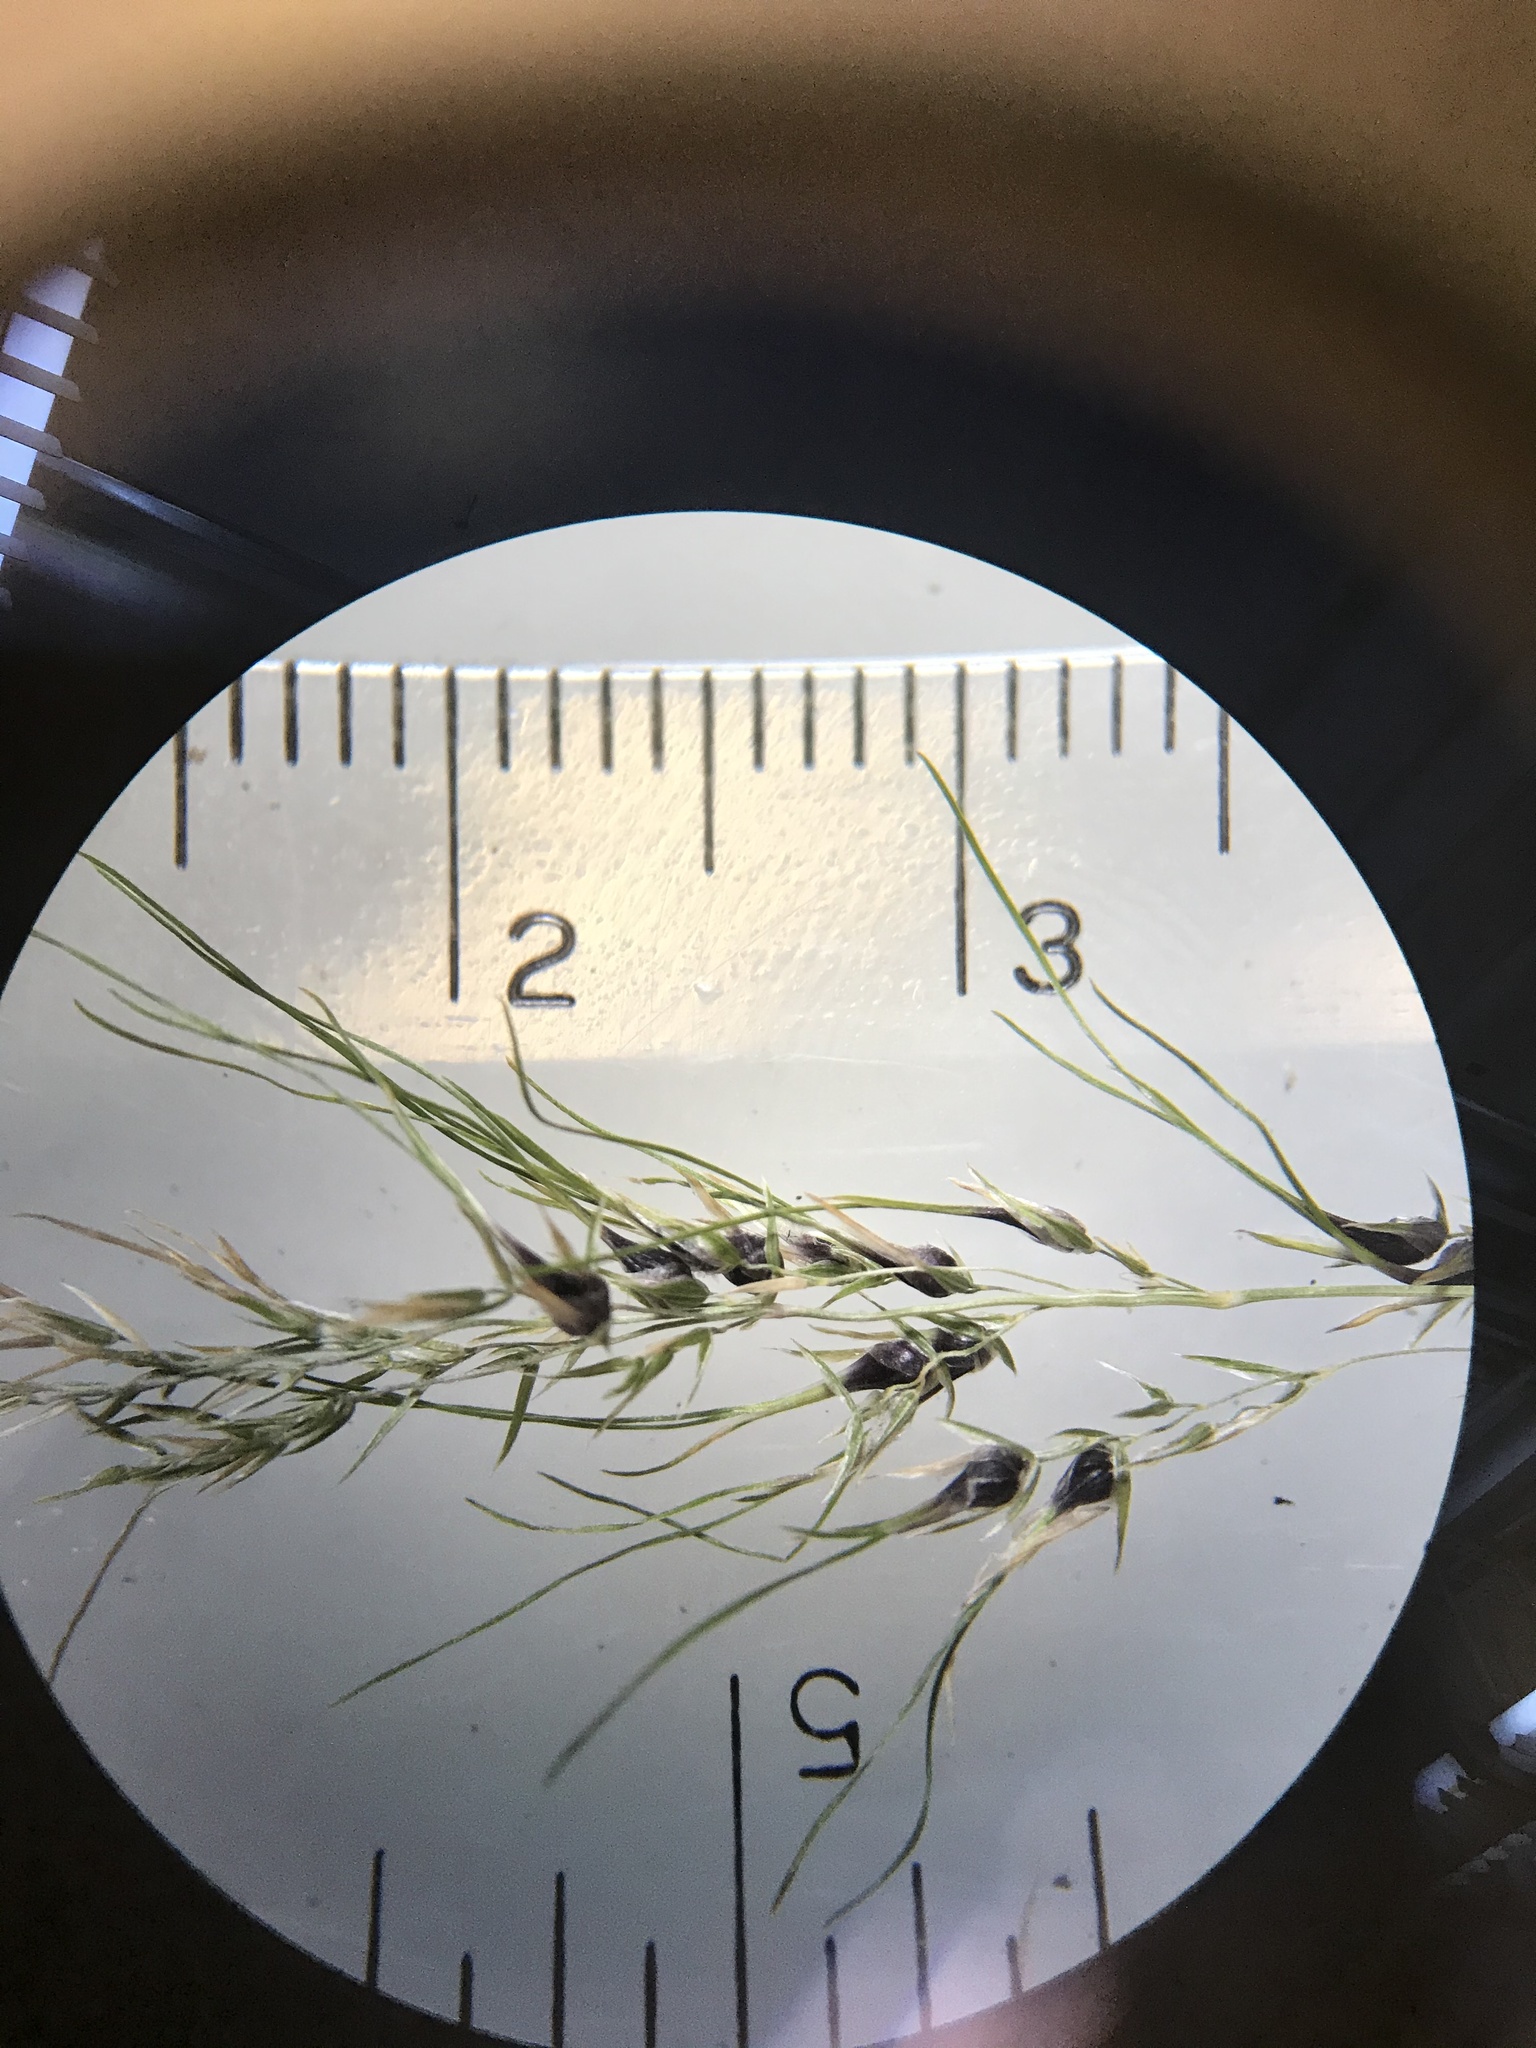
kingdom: Plantae
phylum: Tracheophyta
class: Liliopsida
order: Poales
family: Poaceae
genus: Poa
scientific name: Poa bulbosa
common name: Bulbous bluegrass
